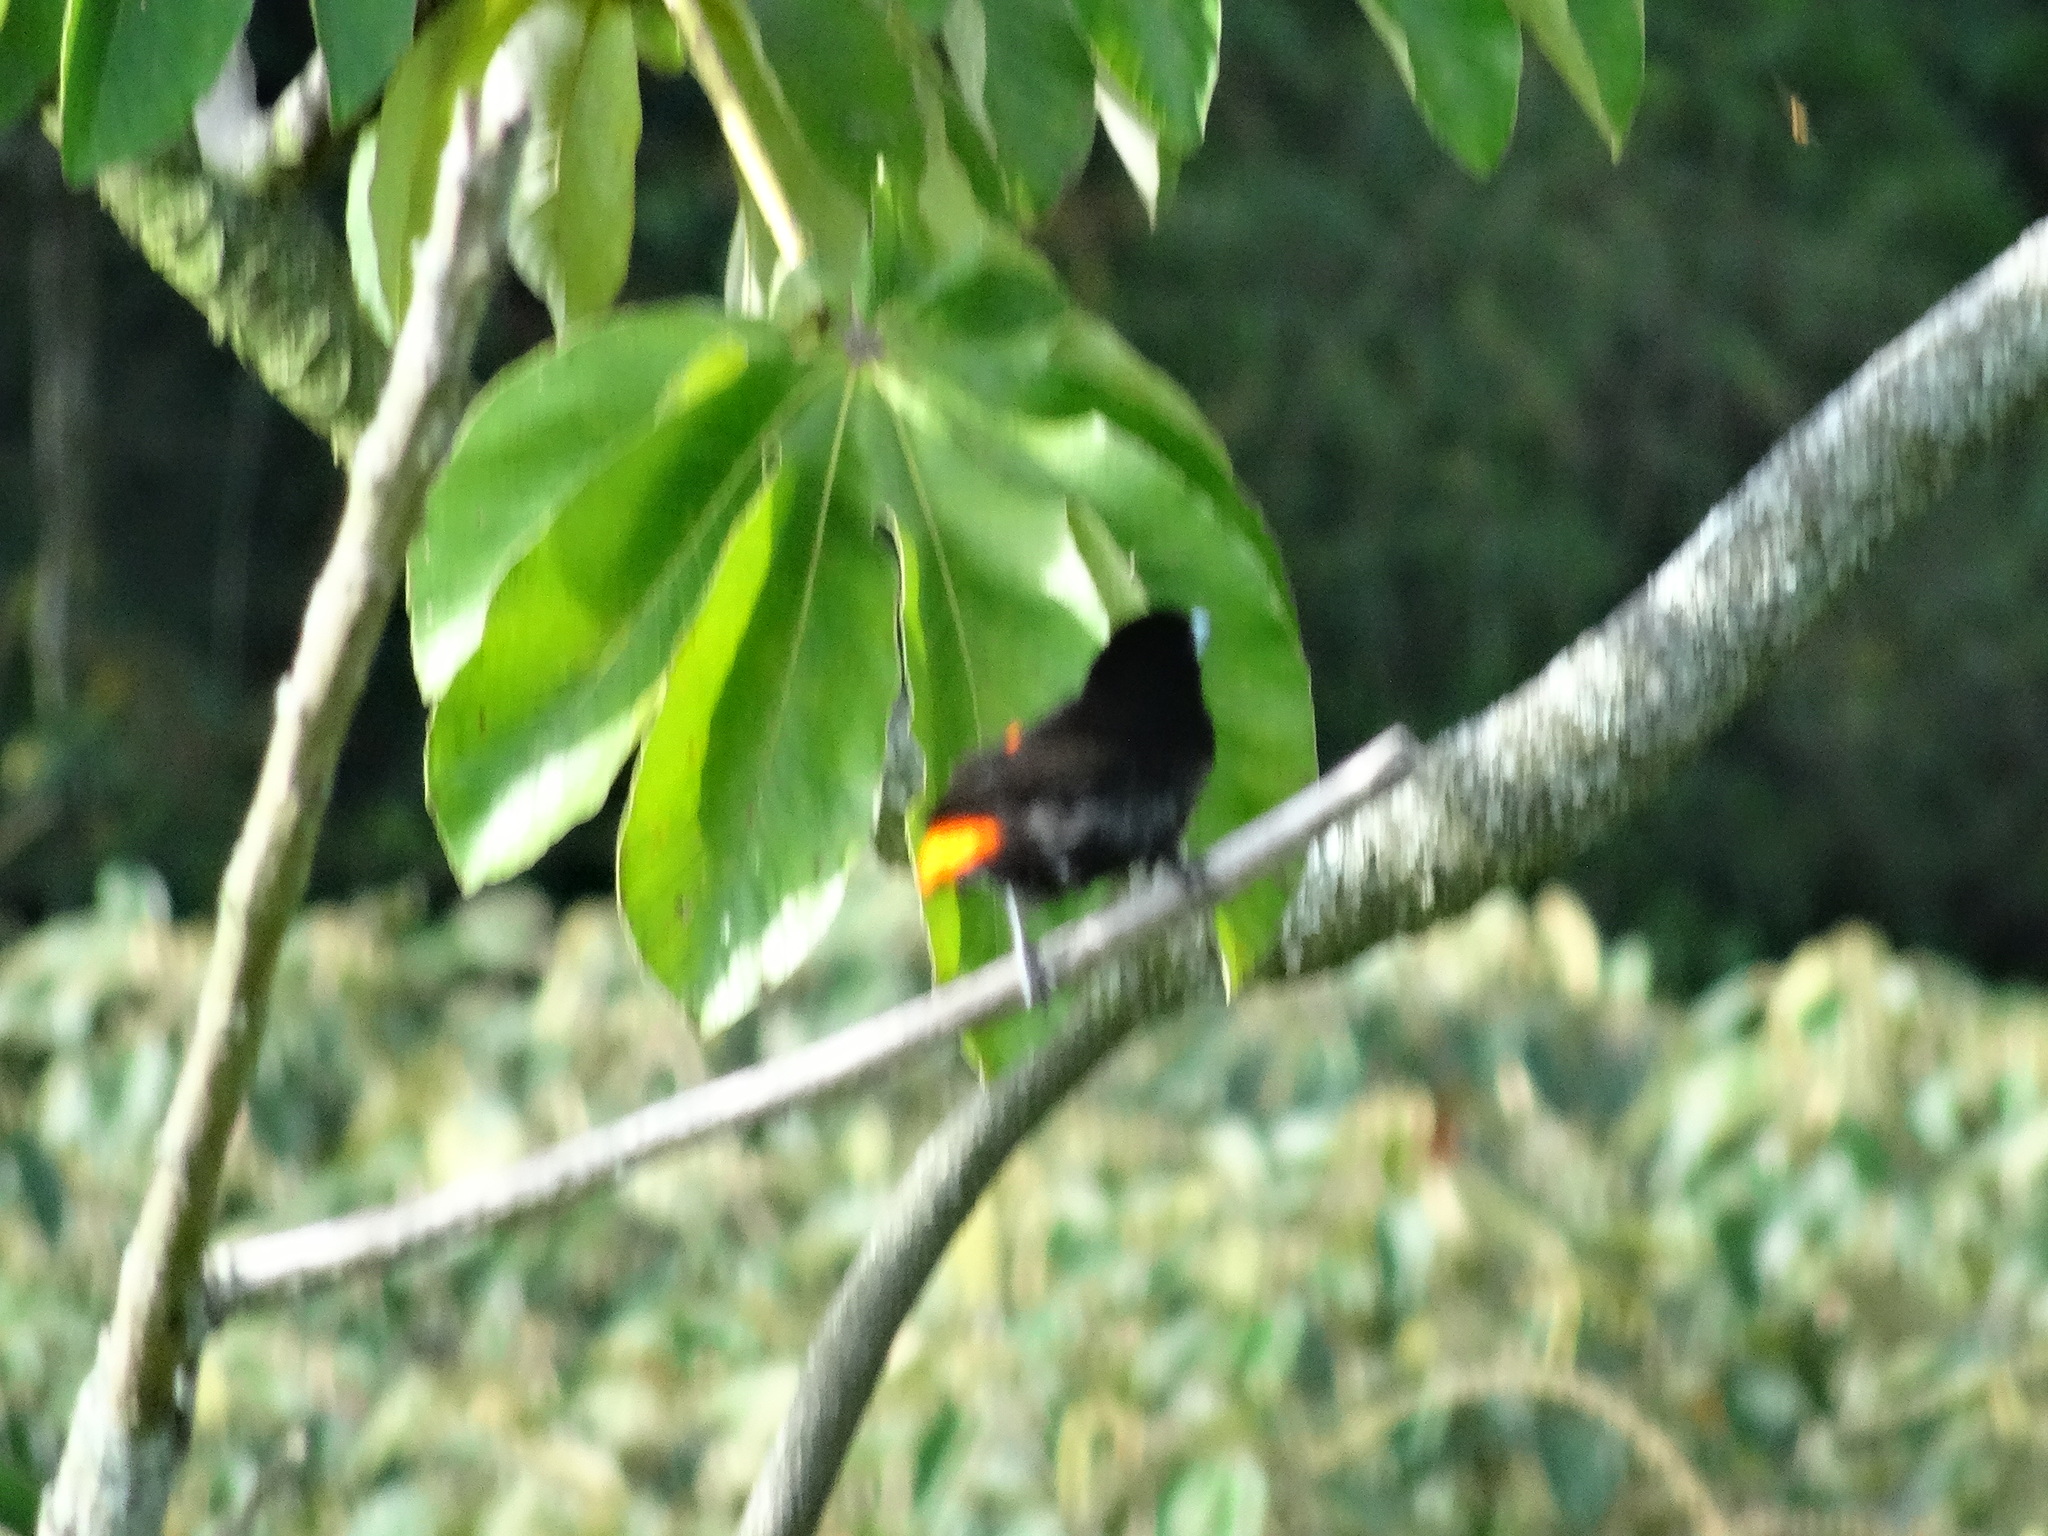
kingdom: Animalia
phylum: Chordata
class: Aves
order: Passeriformes
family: Thraupidae
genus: Ramphocelus
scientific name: Ramphocelus flammigerus
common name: Flame-rumped tanager
